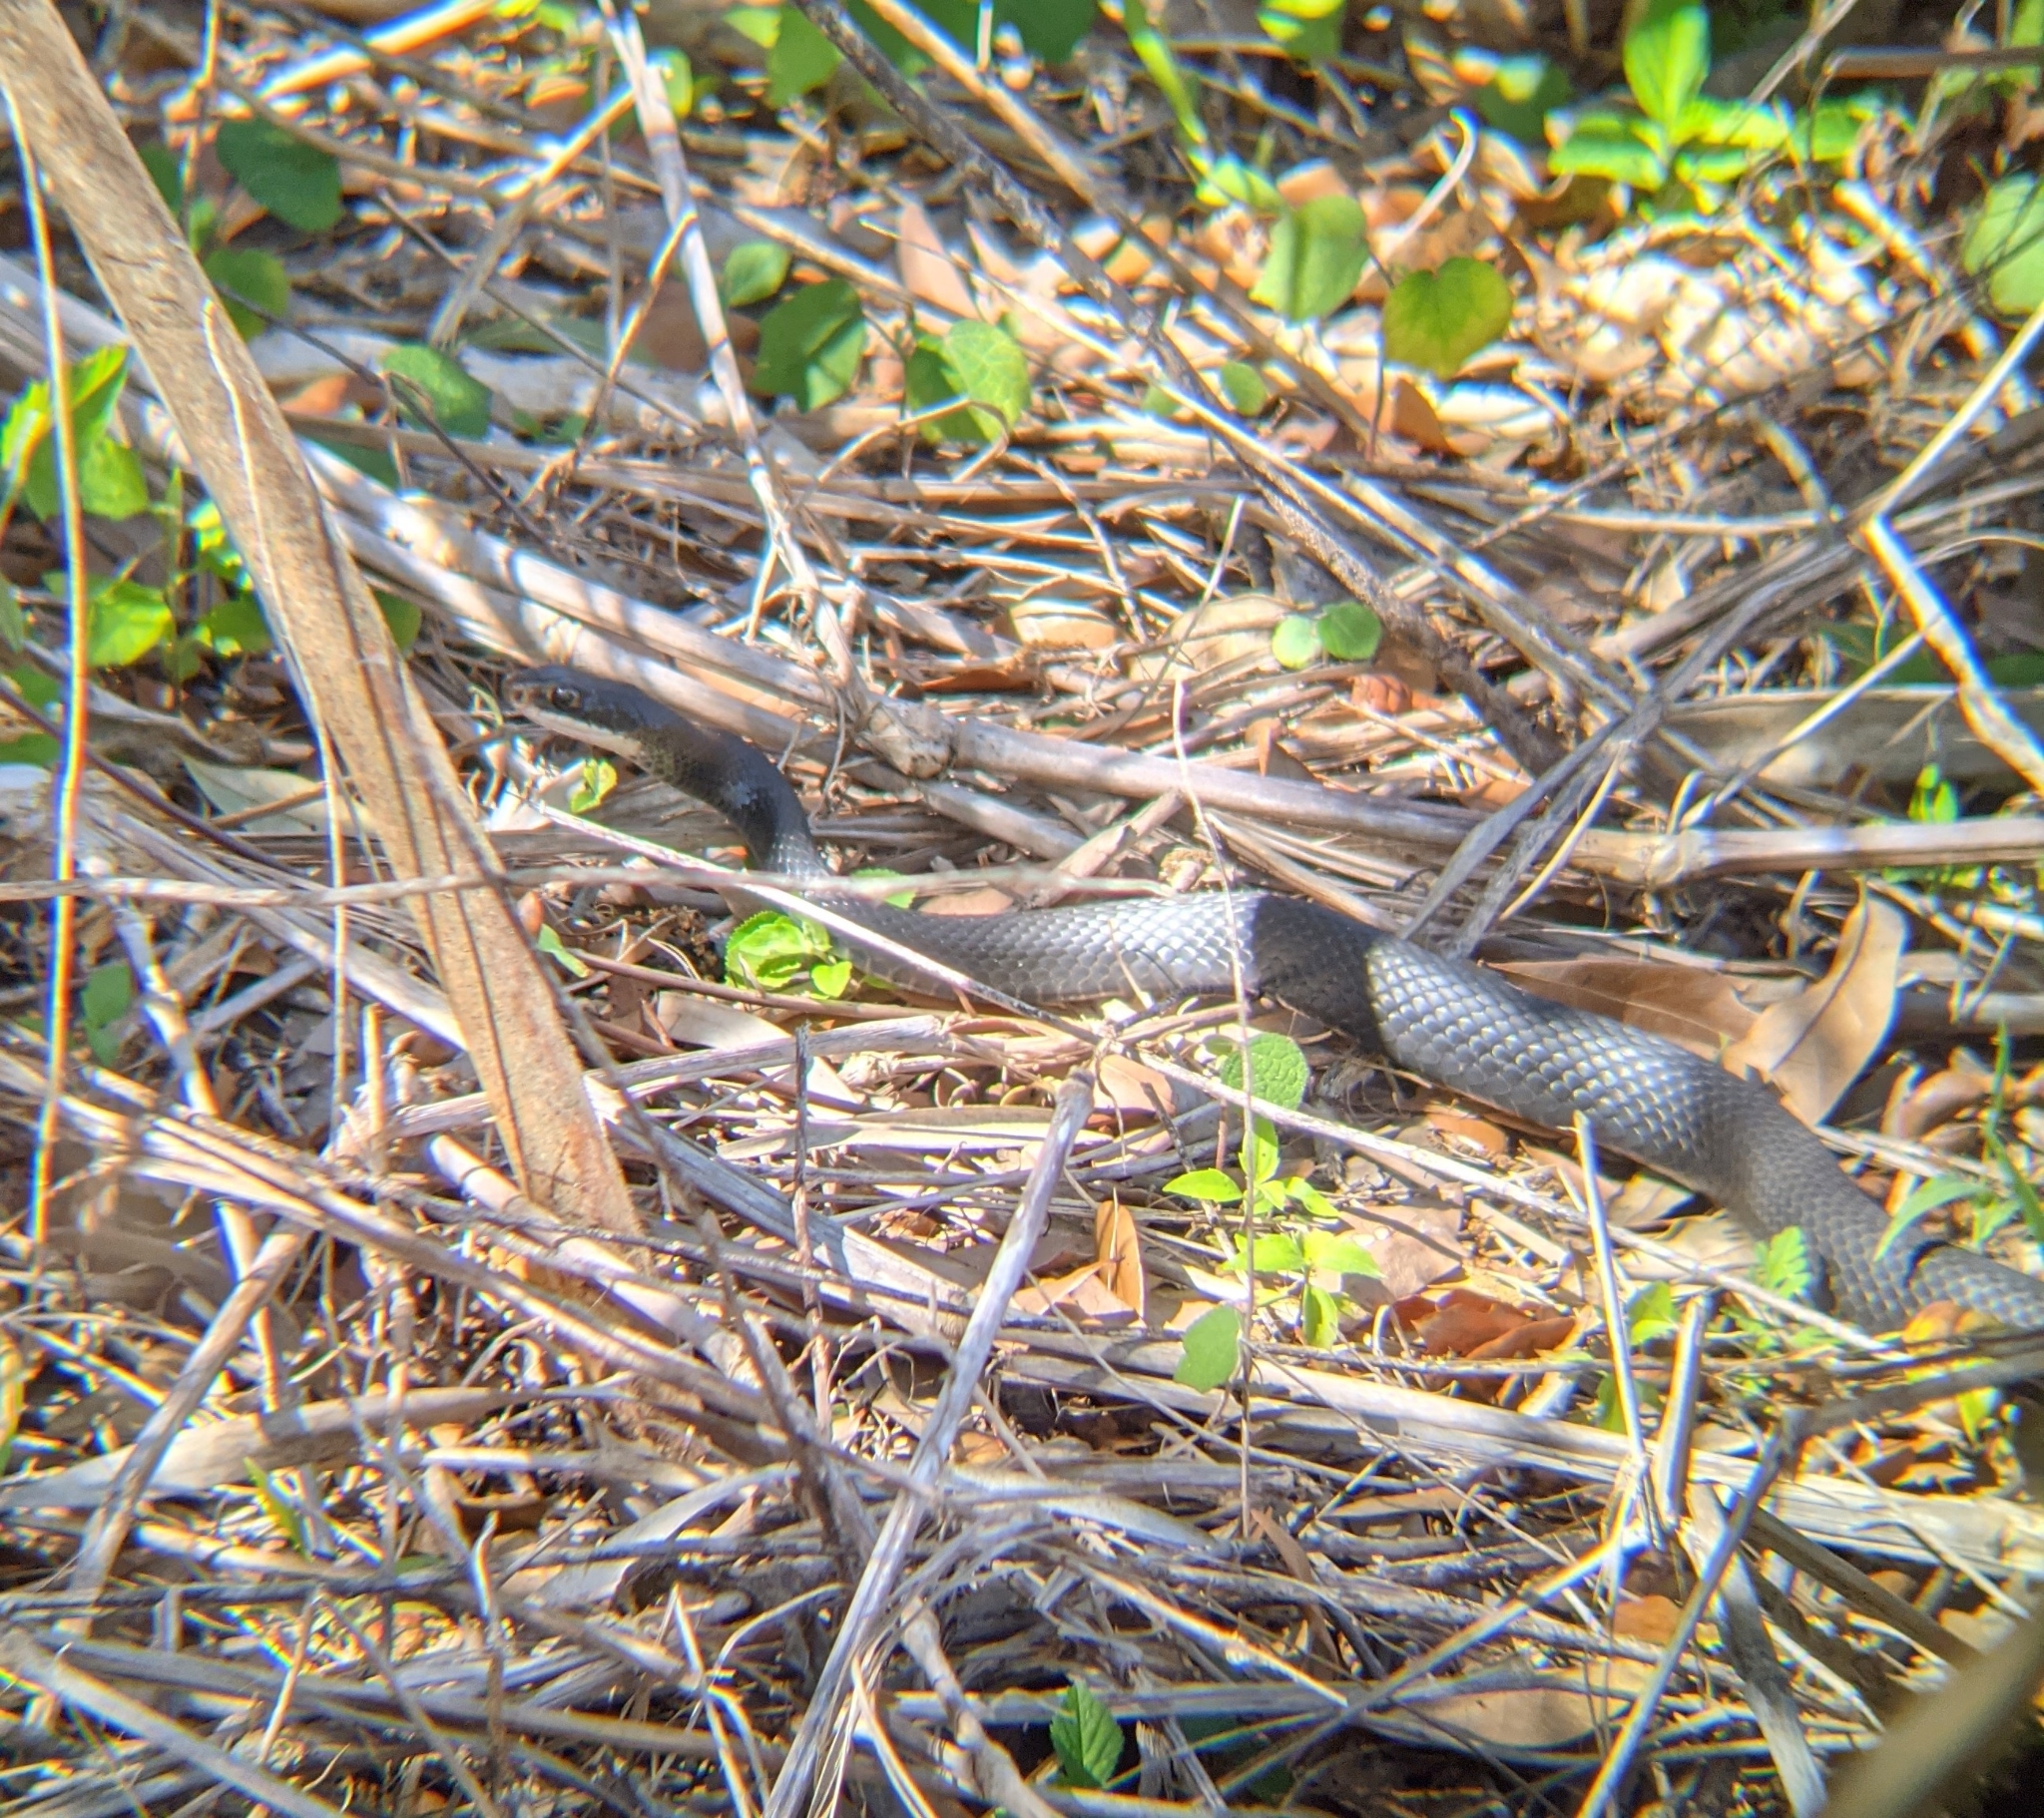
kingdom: Animalia
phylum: Chordata
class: Squamata
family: Colubridae
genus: Coluber
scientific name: Coluber constrictor
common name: Eastern racer
